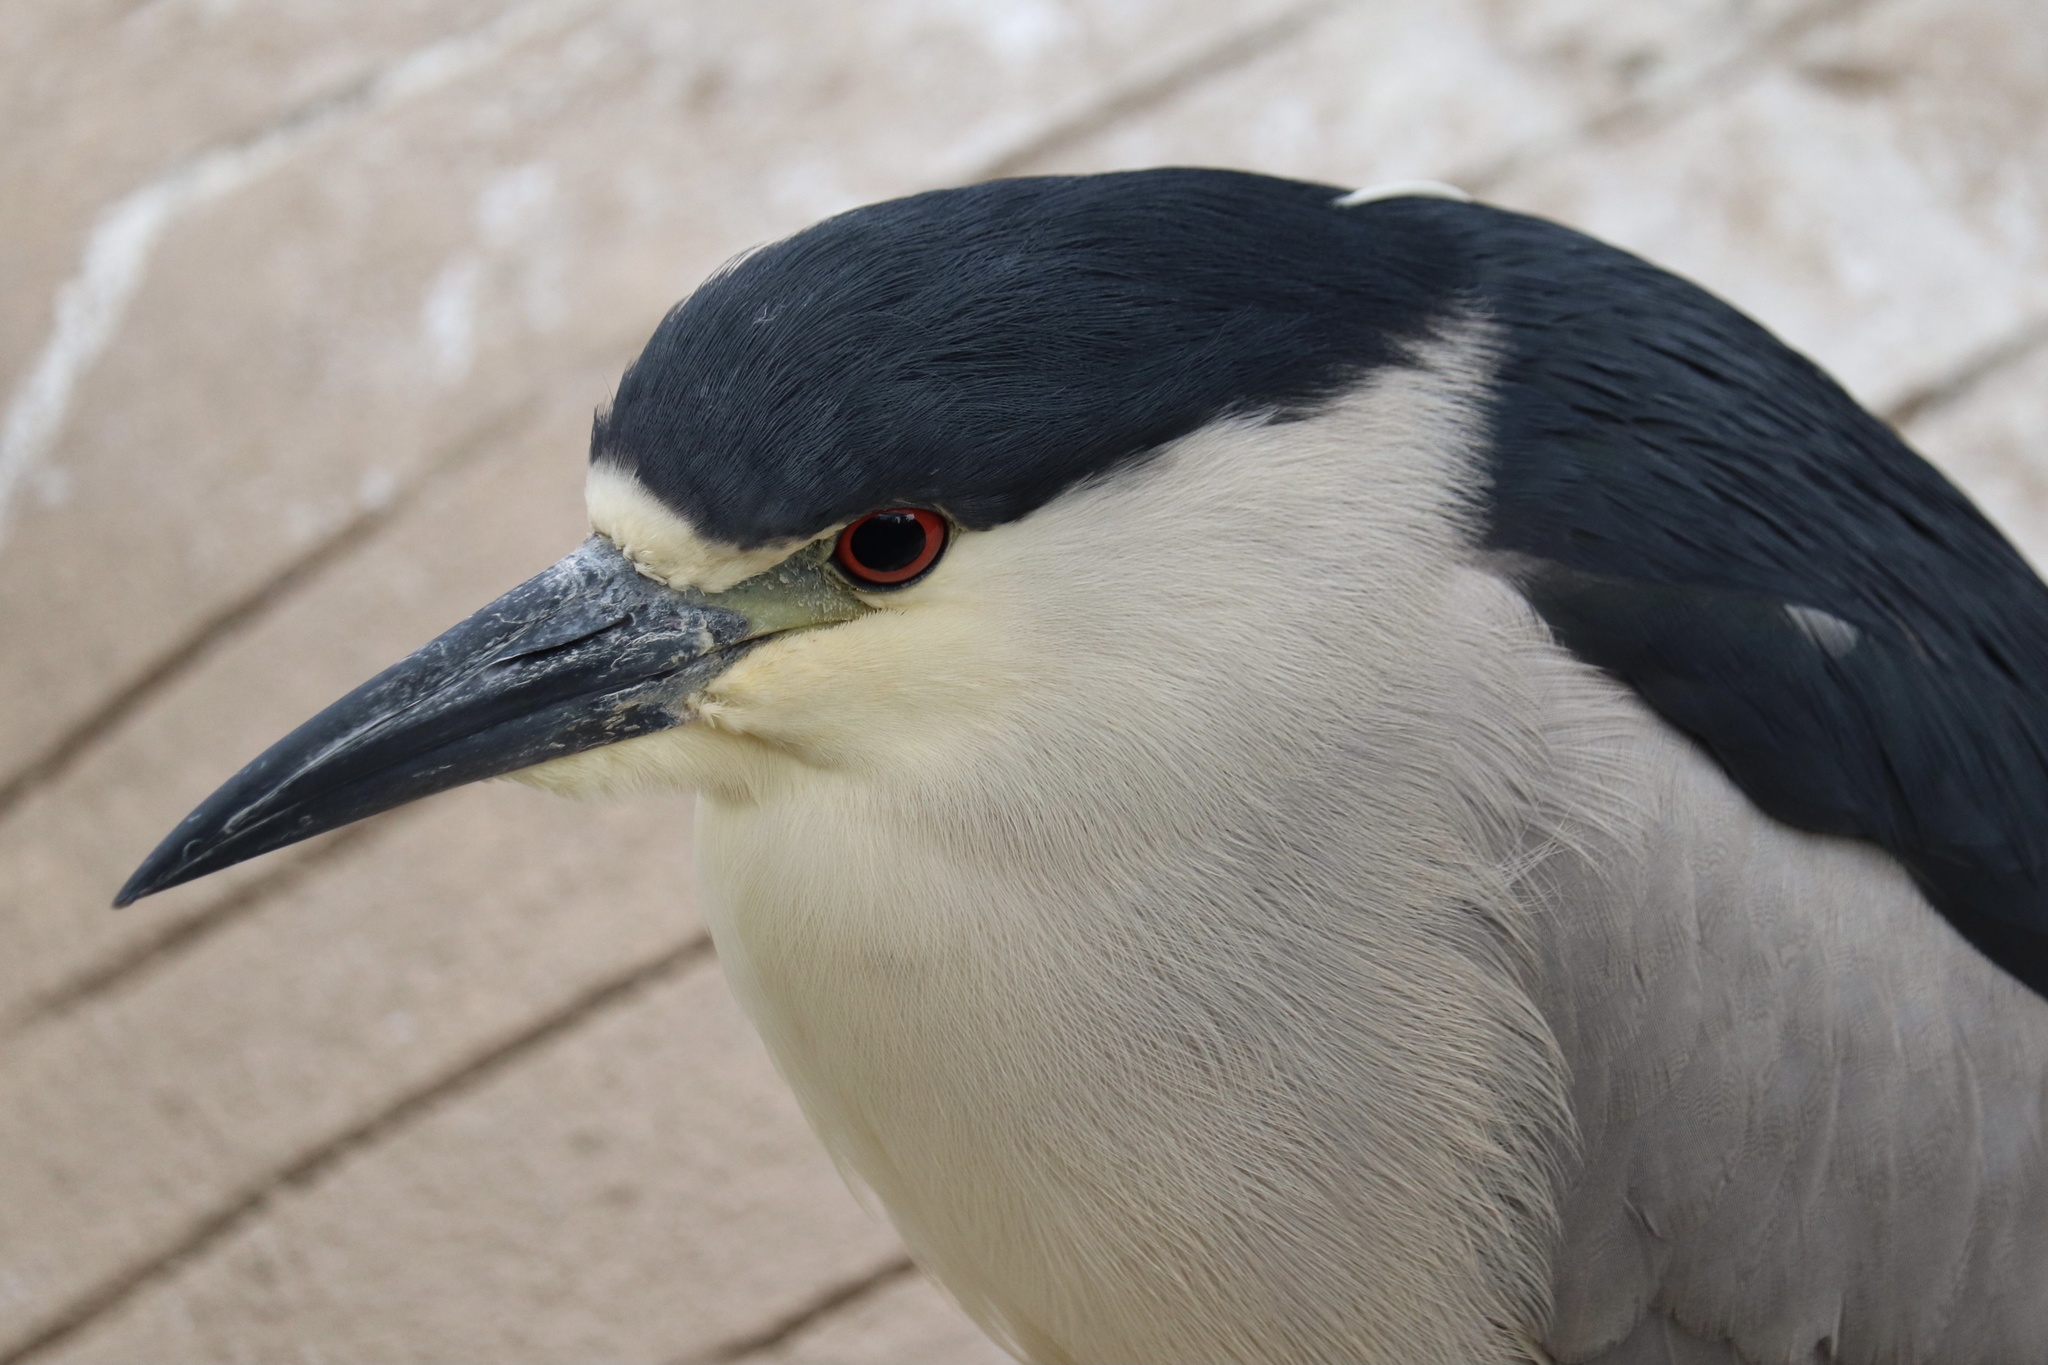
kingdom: Animalia
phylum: Chordata
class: Aves
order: Pelecaniformes
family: Ardeidae
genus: Nycticorax
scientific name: Nycticorax nycticorax
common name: Black-crowned night heron
